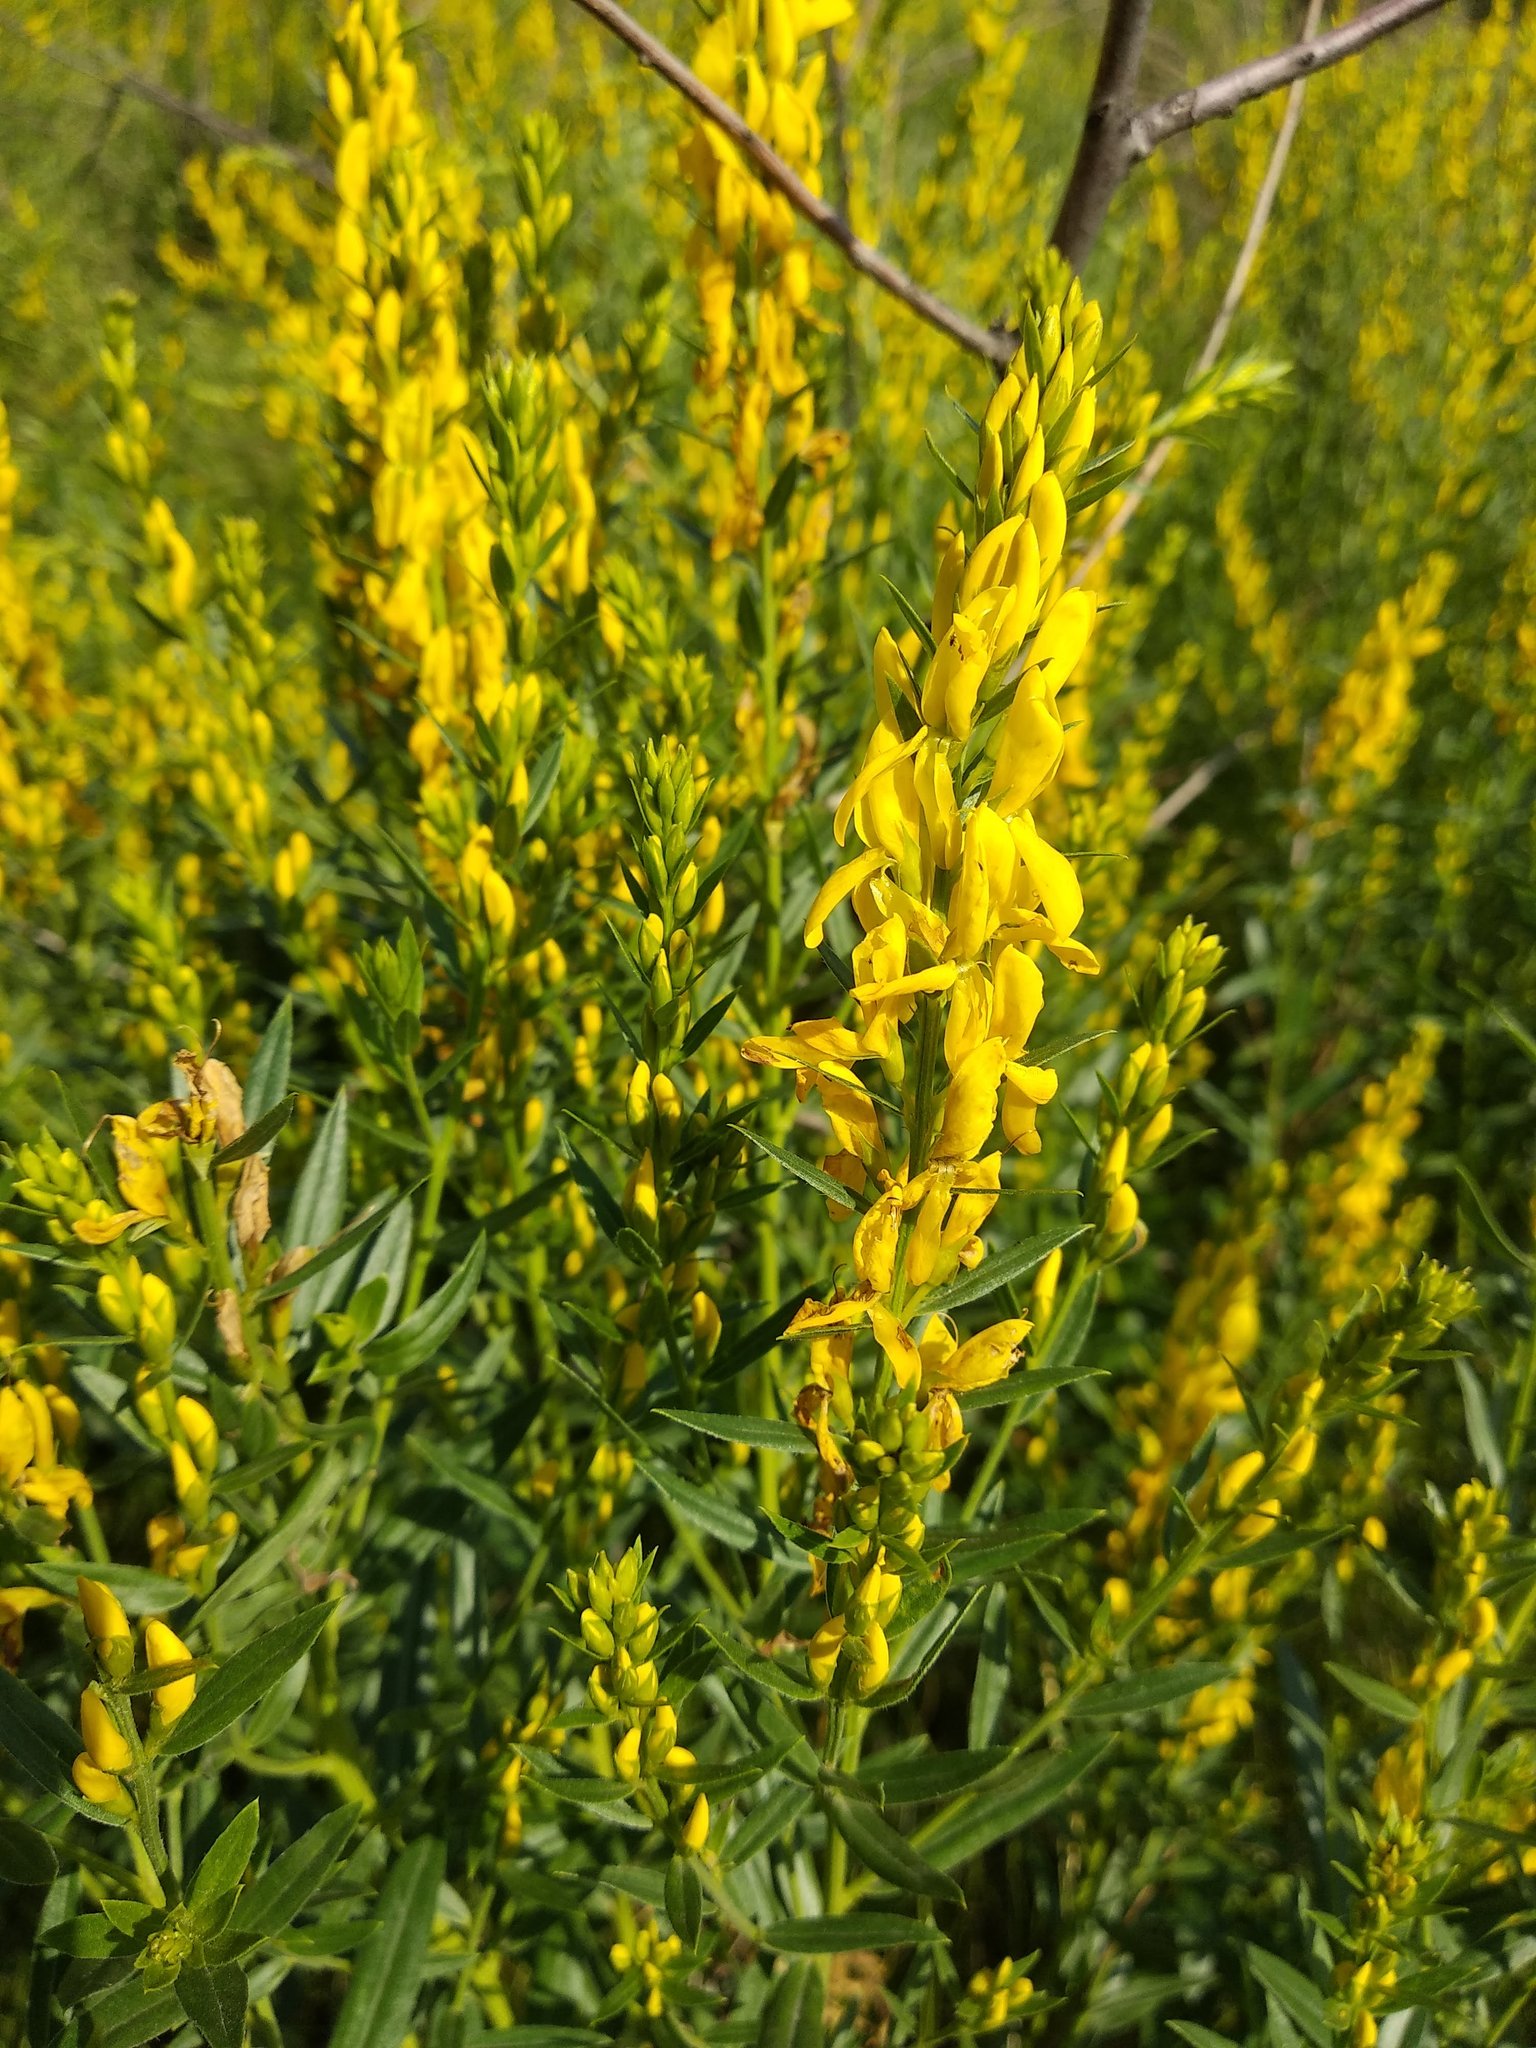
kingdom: Plantae
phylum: Tracheophyta
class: Magnoliopsida
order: Fabales
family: Fabaceae
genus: Genista
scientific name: Genista tinctoria
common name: Dyer's greenweed
